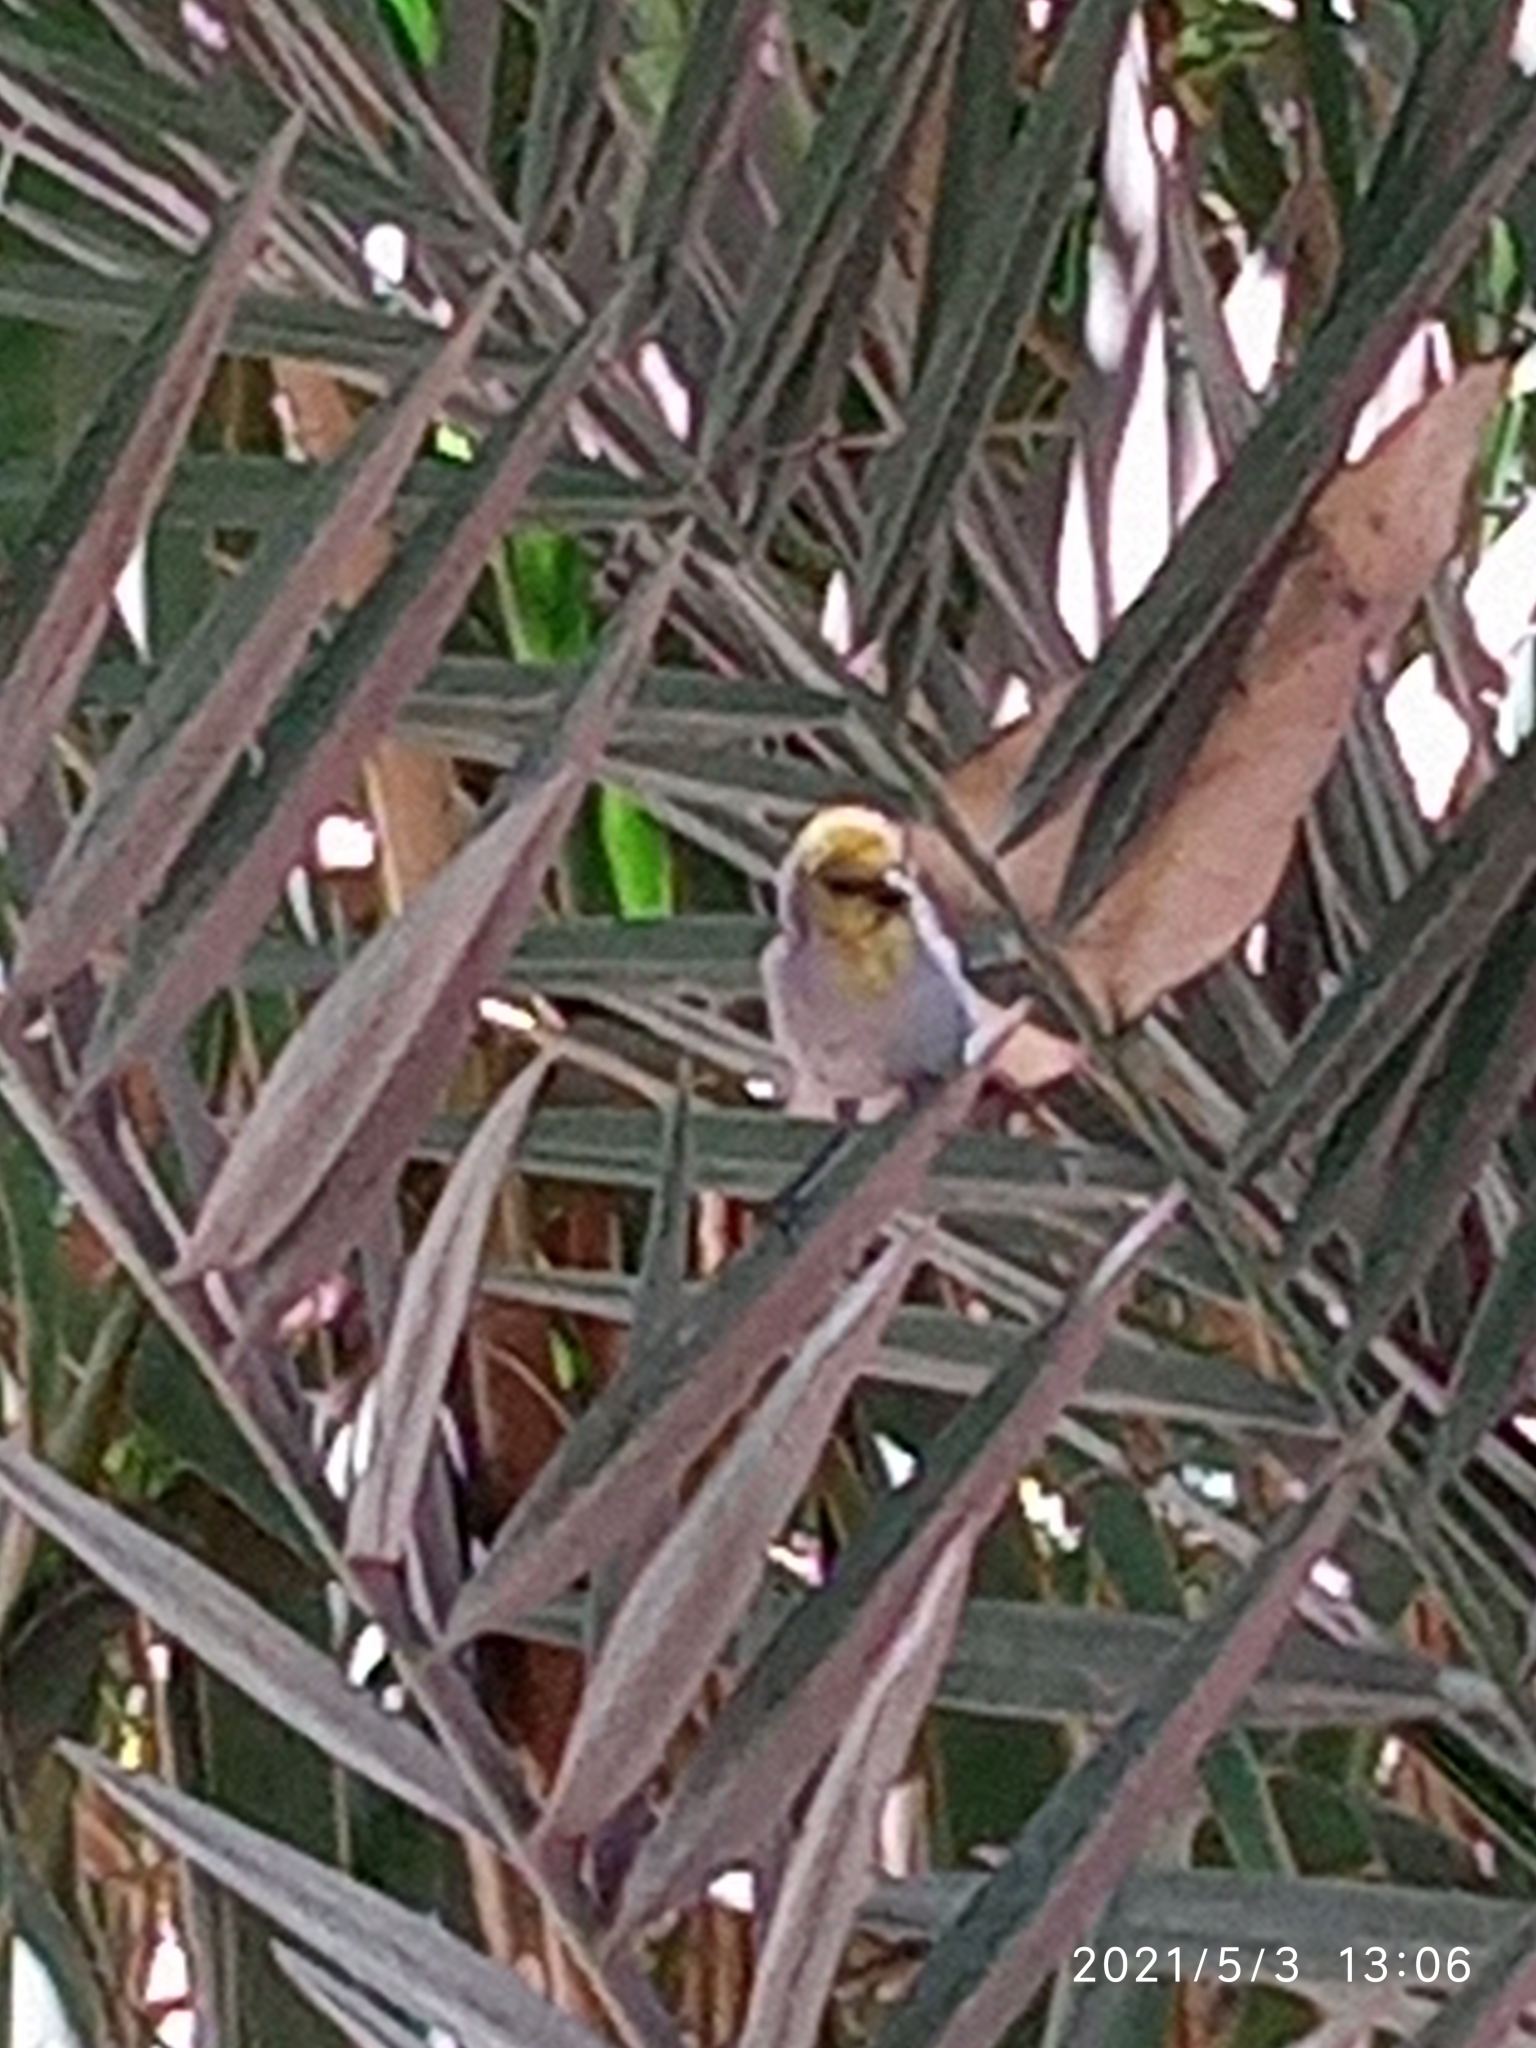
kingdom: Animalia
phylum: Chordata
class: Aves
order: Passeriformes
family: Remizidae
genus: Auriparus
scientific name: Auriparus flaviceps
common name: Verdin
